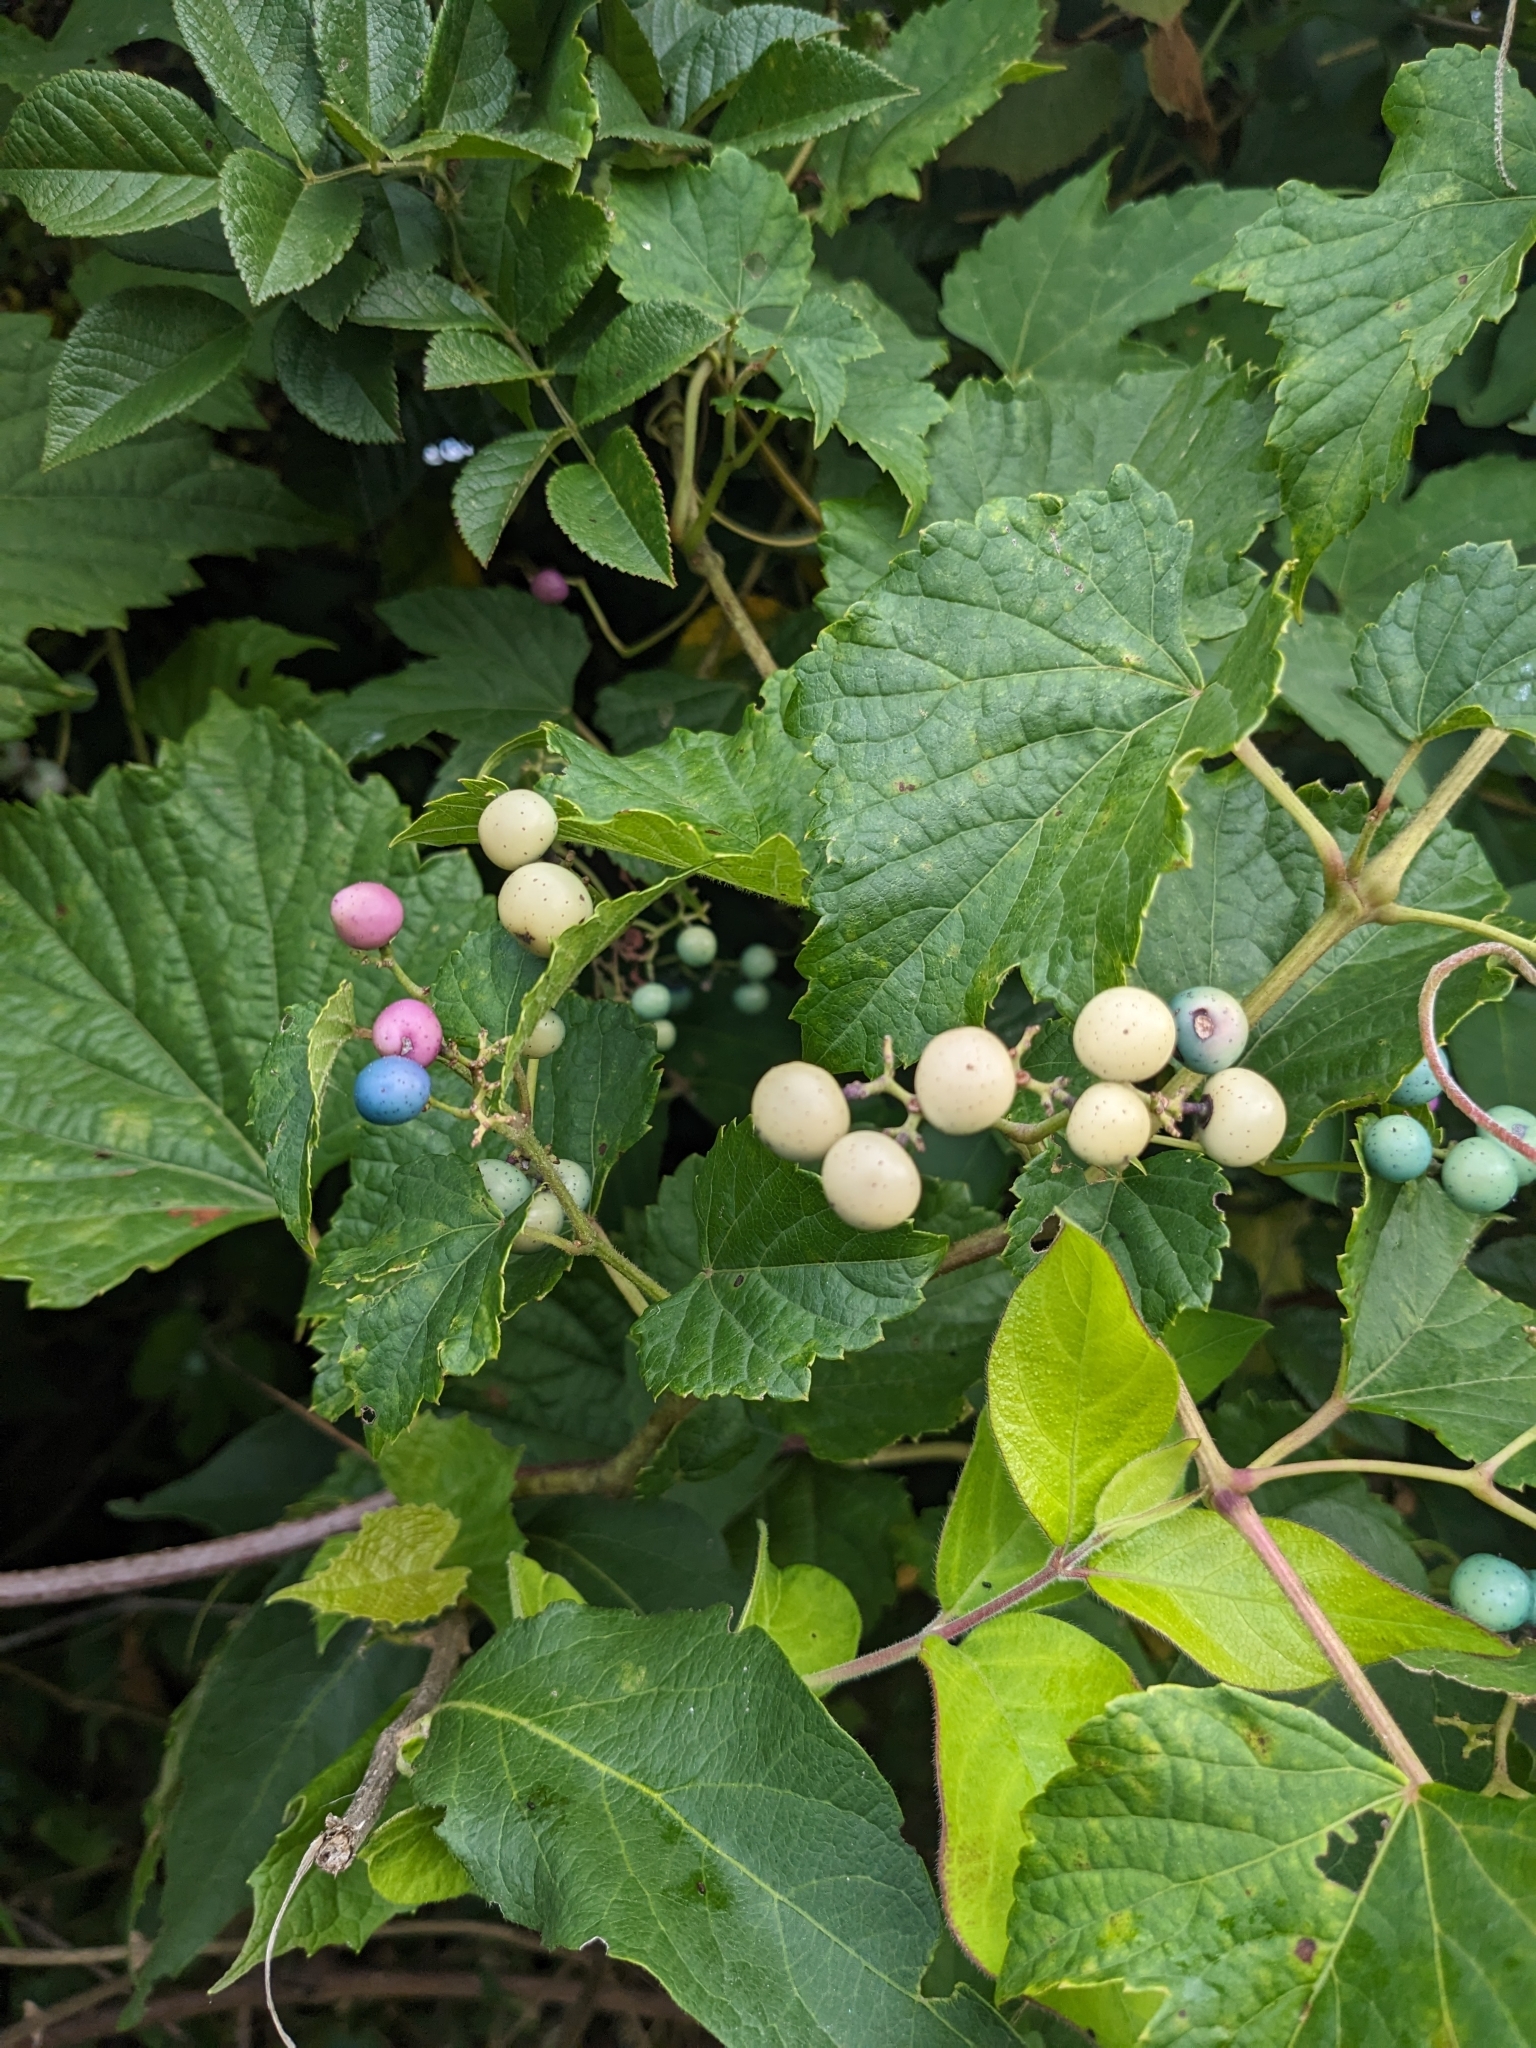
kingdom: Plantae
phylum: Tracheophyta
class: Magnoliopsida
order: Vitales
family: Vitaceae
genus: Ampelopsis
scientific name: Ampelopsis glandulosa
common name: Amur peppervine
